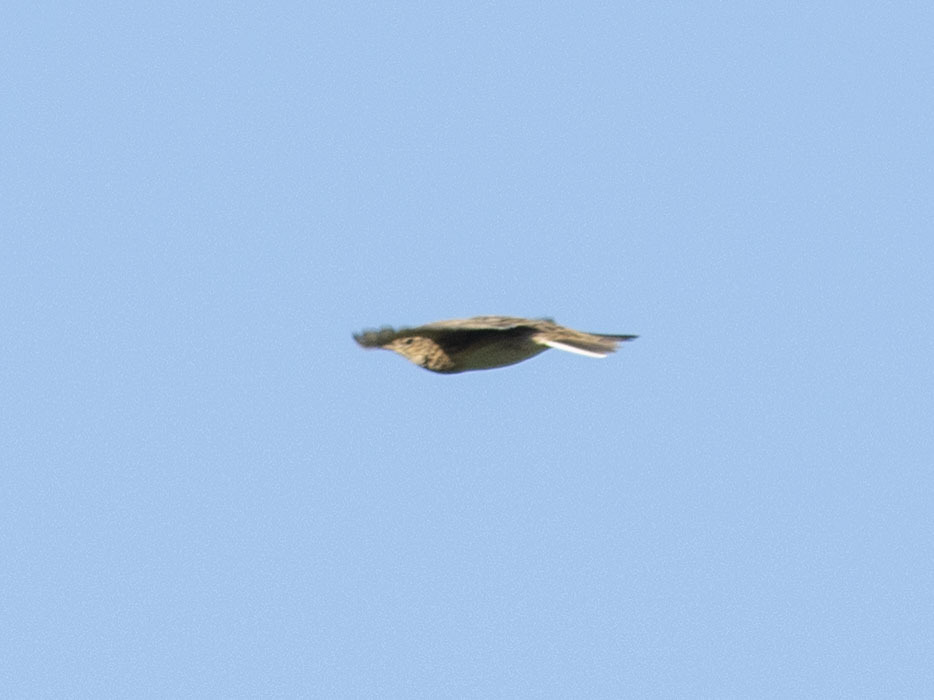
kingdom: Animalia
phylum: Chordata
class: Aves
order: Passeriformes
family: Alaudidae
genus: Alauda
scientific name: Alauda arvensis
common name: Eurasian skylark
